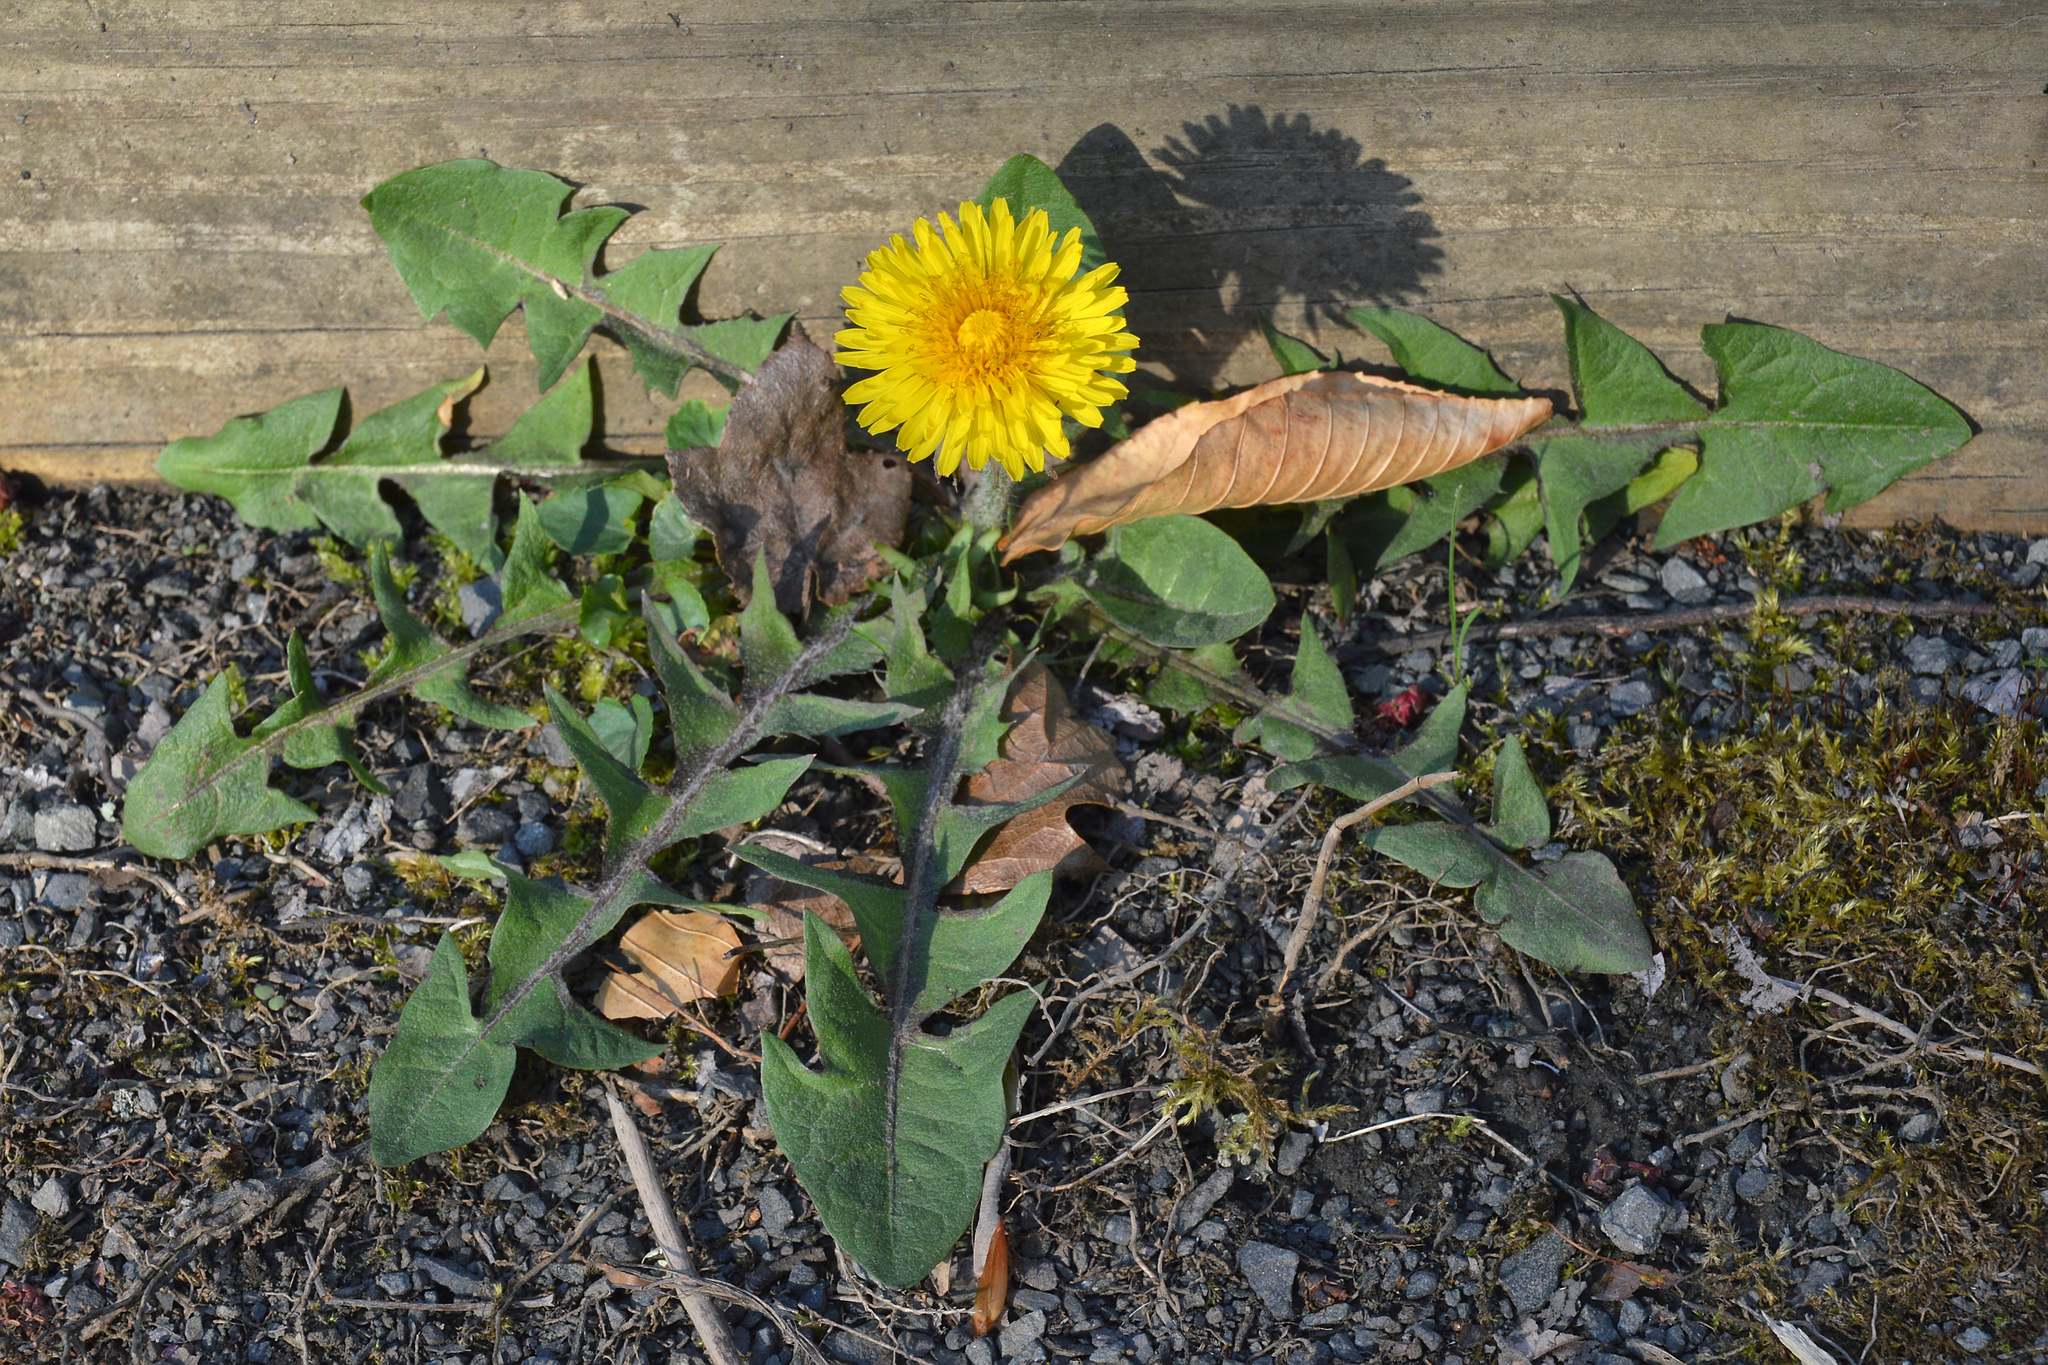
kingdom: Plantae
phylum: Tracheophyta
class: Magnoliopsida
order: Asterales
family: Asteraceae
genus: Taraxacum
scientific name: Taraxacum
